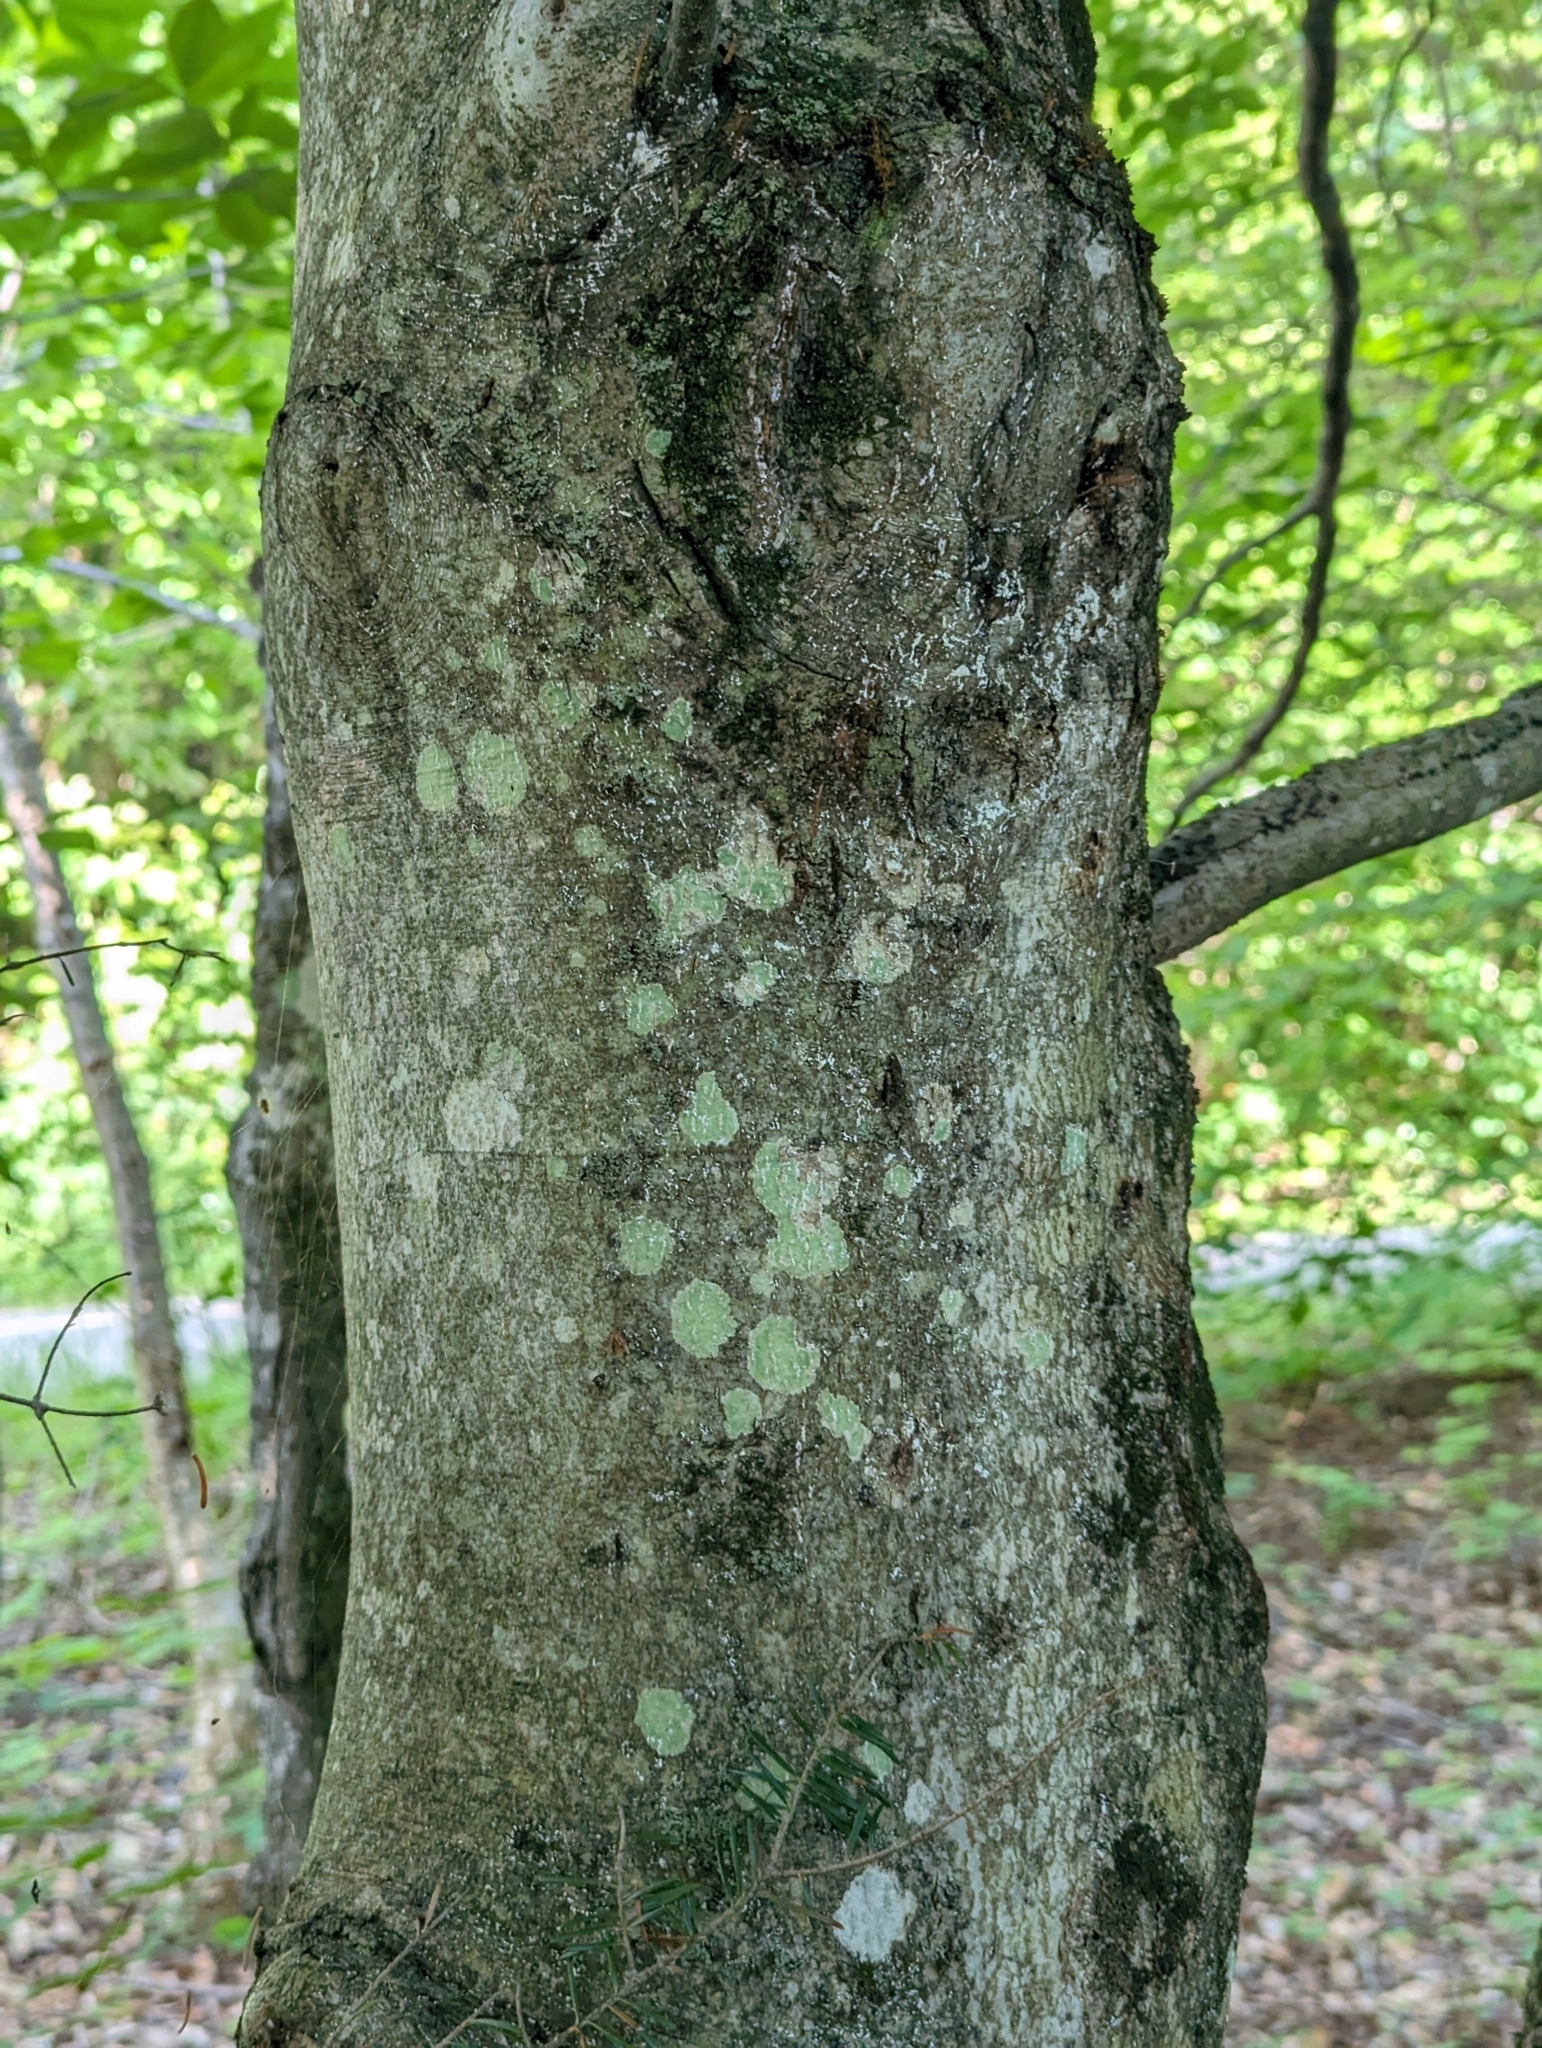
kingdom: Plantae
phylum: Tracheophyta
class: Magnoliopsida
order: Fagales
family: Fagaceae
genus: Fagus
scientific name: Fagus grandifolia
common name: American beech
